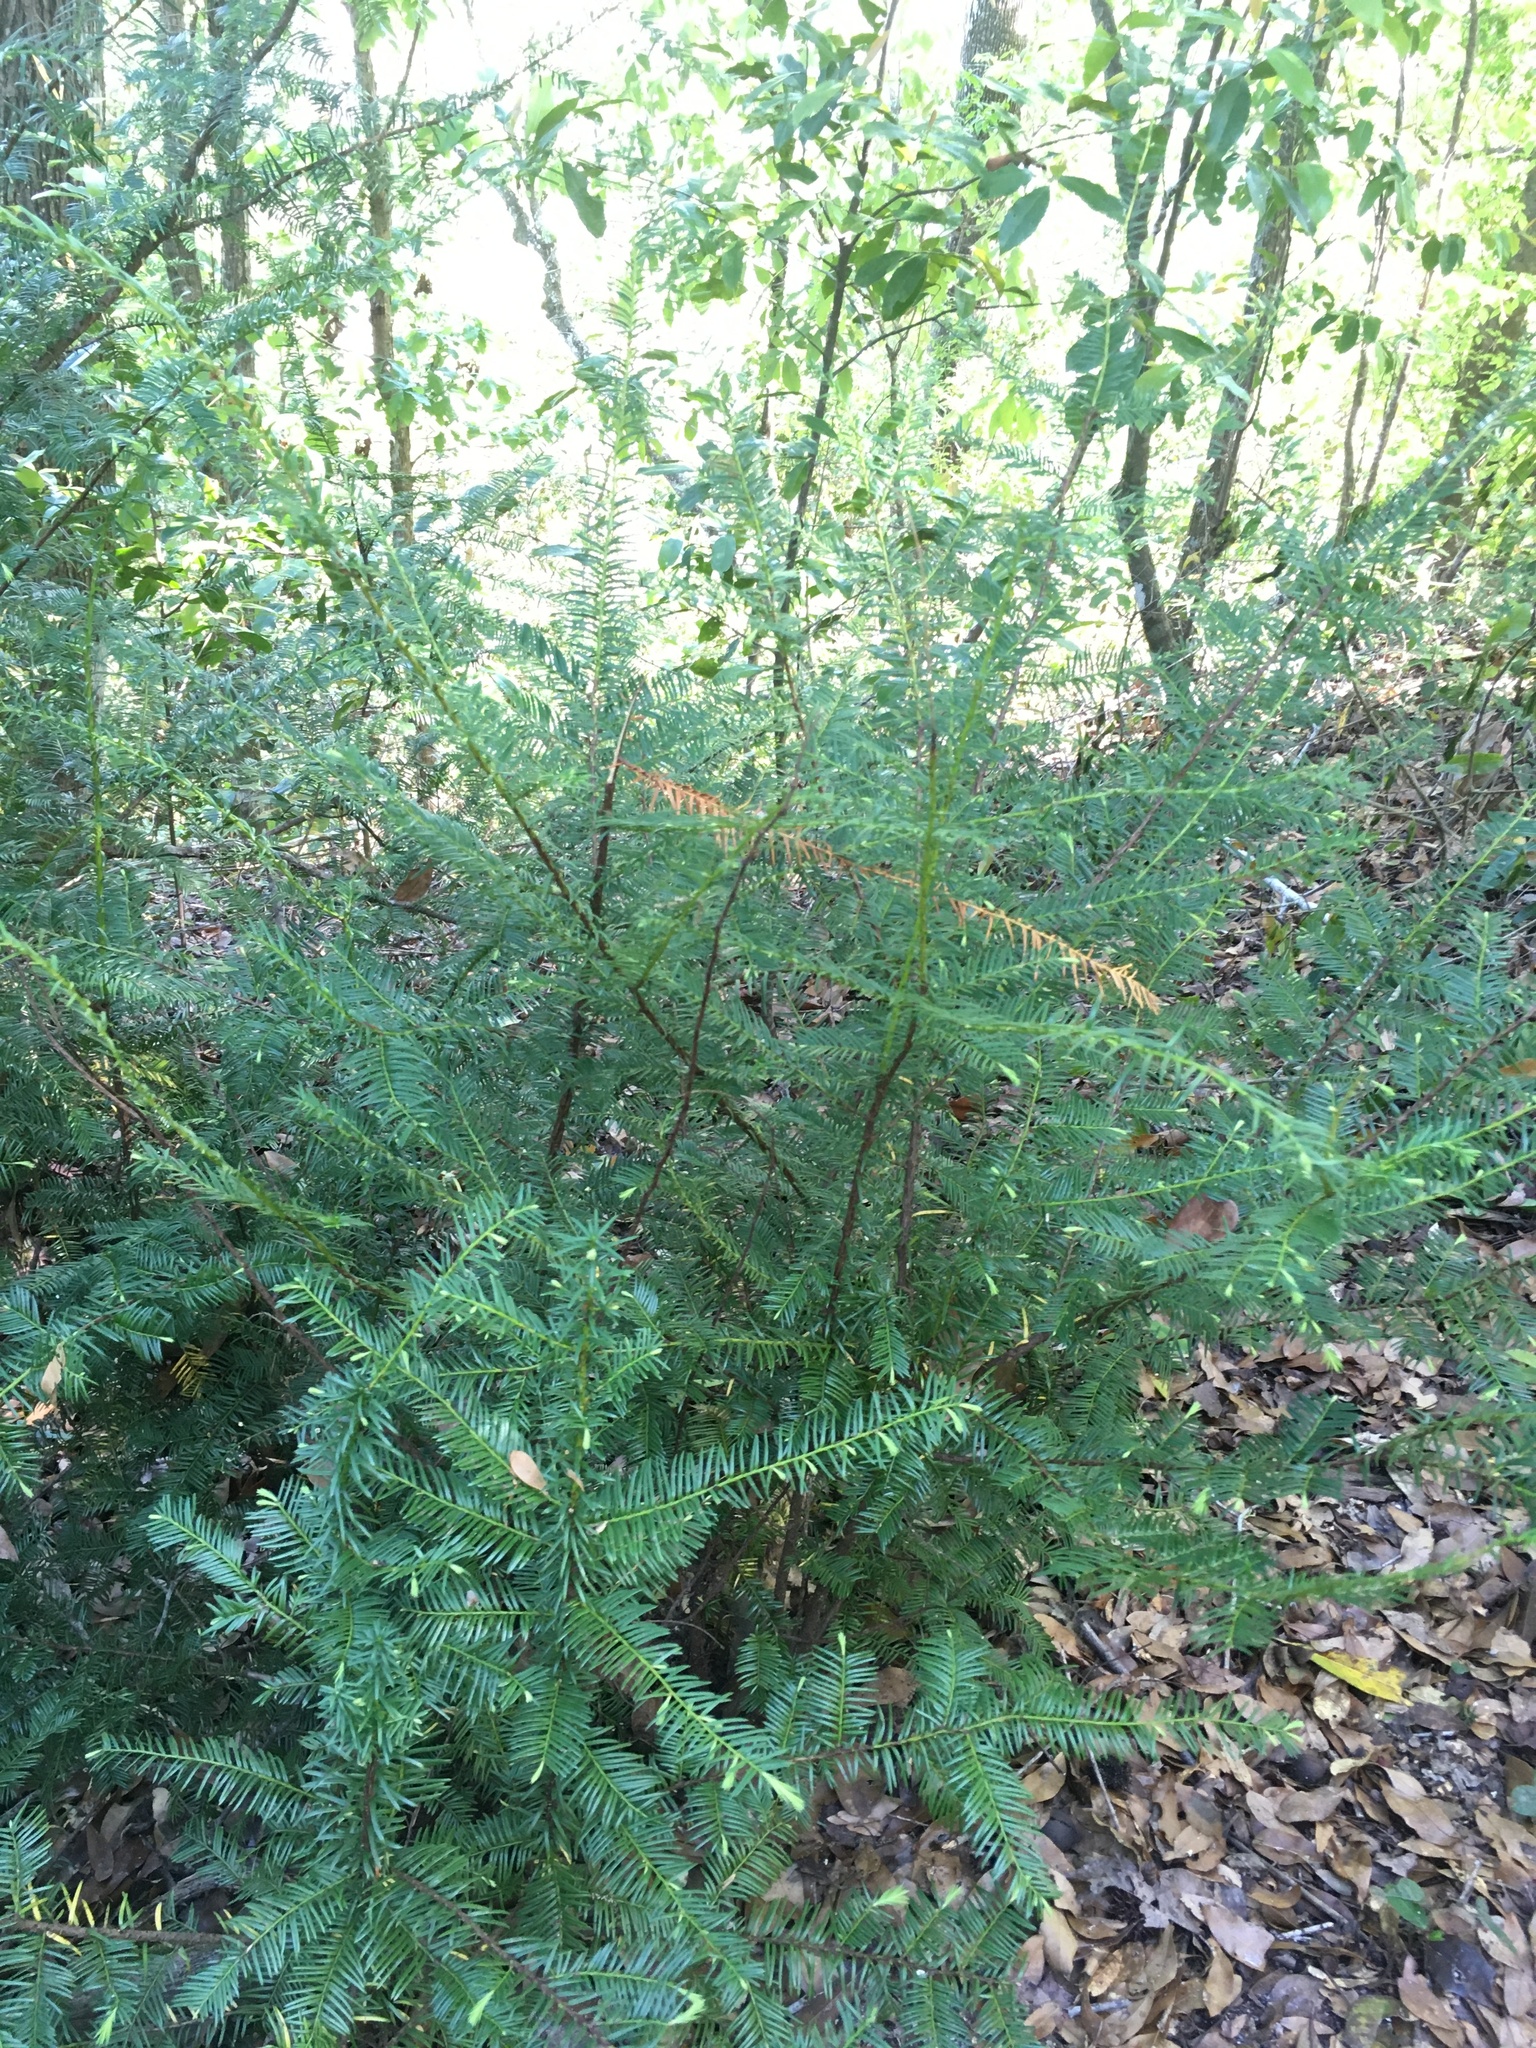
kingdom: Plantae
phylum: Tracheophyta
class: Pinopsida
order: Pinales
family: Taxaceae
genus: Taxus
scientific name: Taxus floridana
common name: Florida yew
